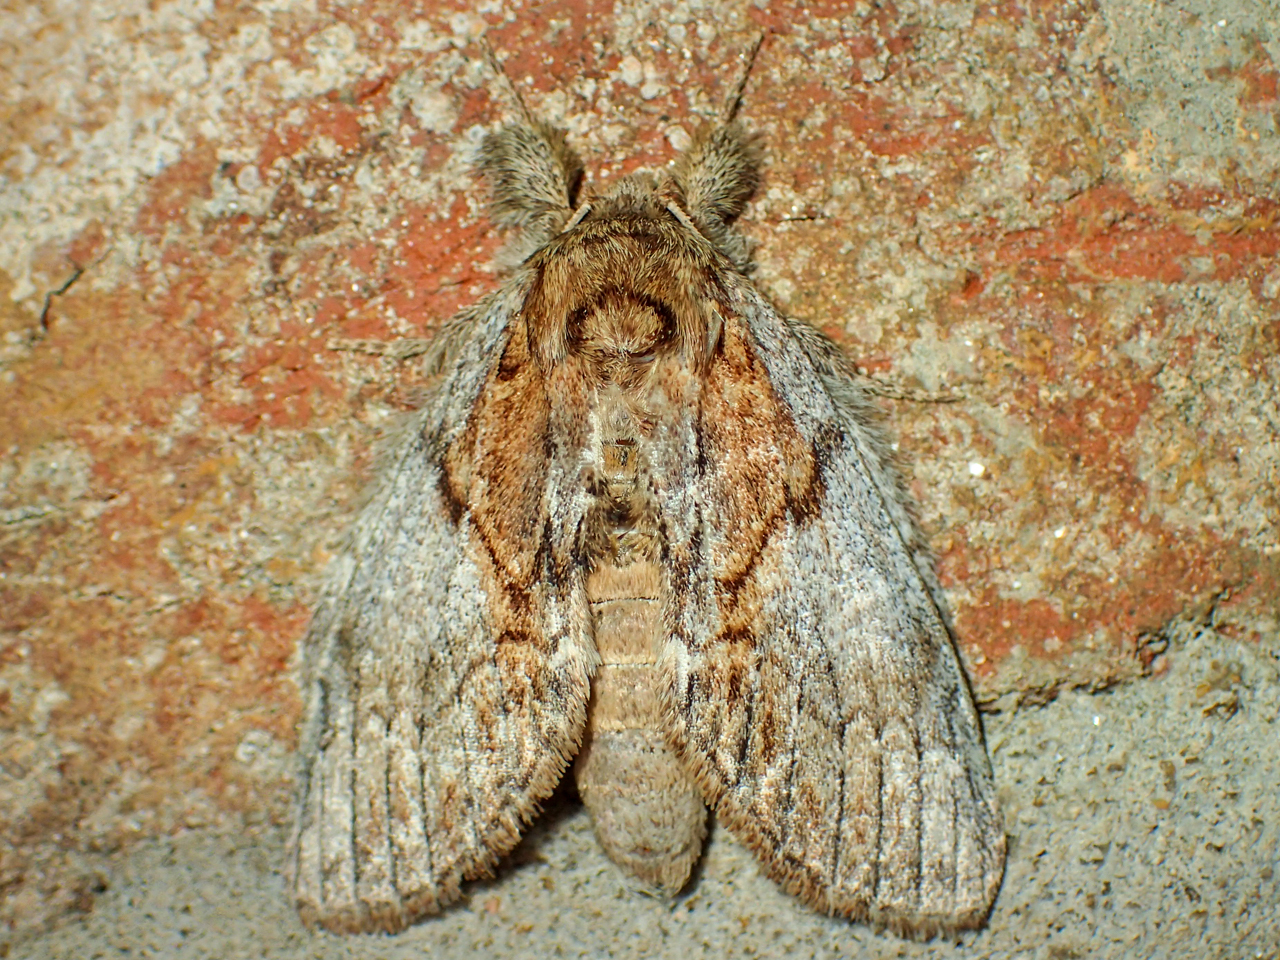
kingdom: Animalia
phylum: Arthropoda
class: Insecta
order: Lepidoptera
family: Notodontidae
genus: Peridea
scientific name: Peridea basitriens
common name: Oval-based prominent
